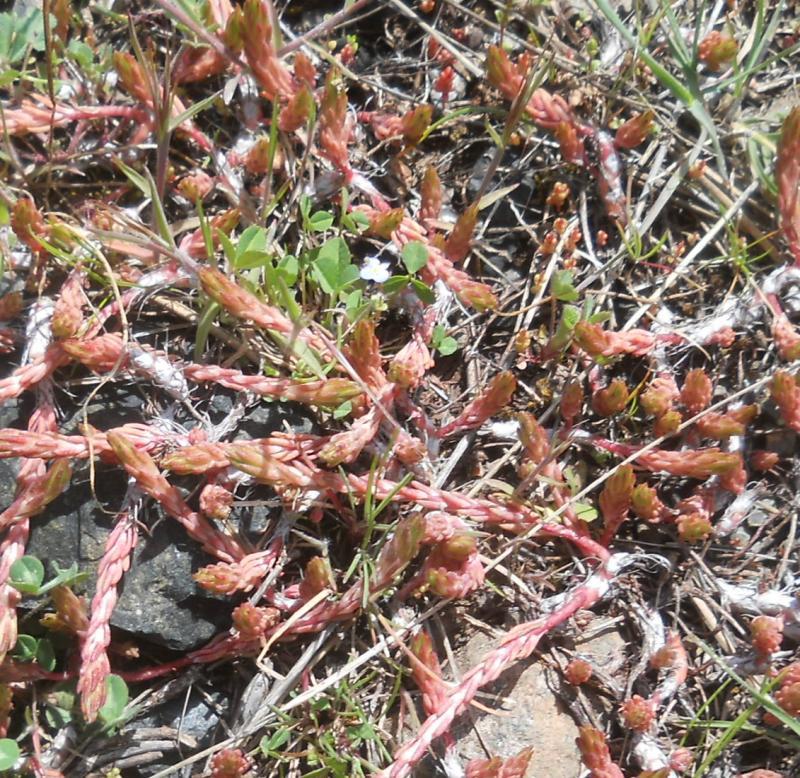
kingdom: Plantae
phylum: Tracheophyta
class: Magnoliopsida
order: Saxifragales
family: Crassulaceae
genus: Petrosedum
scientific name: Petrosedum amplexicaule
